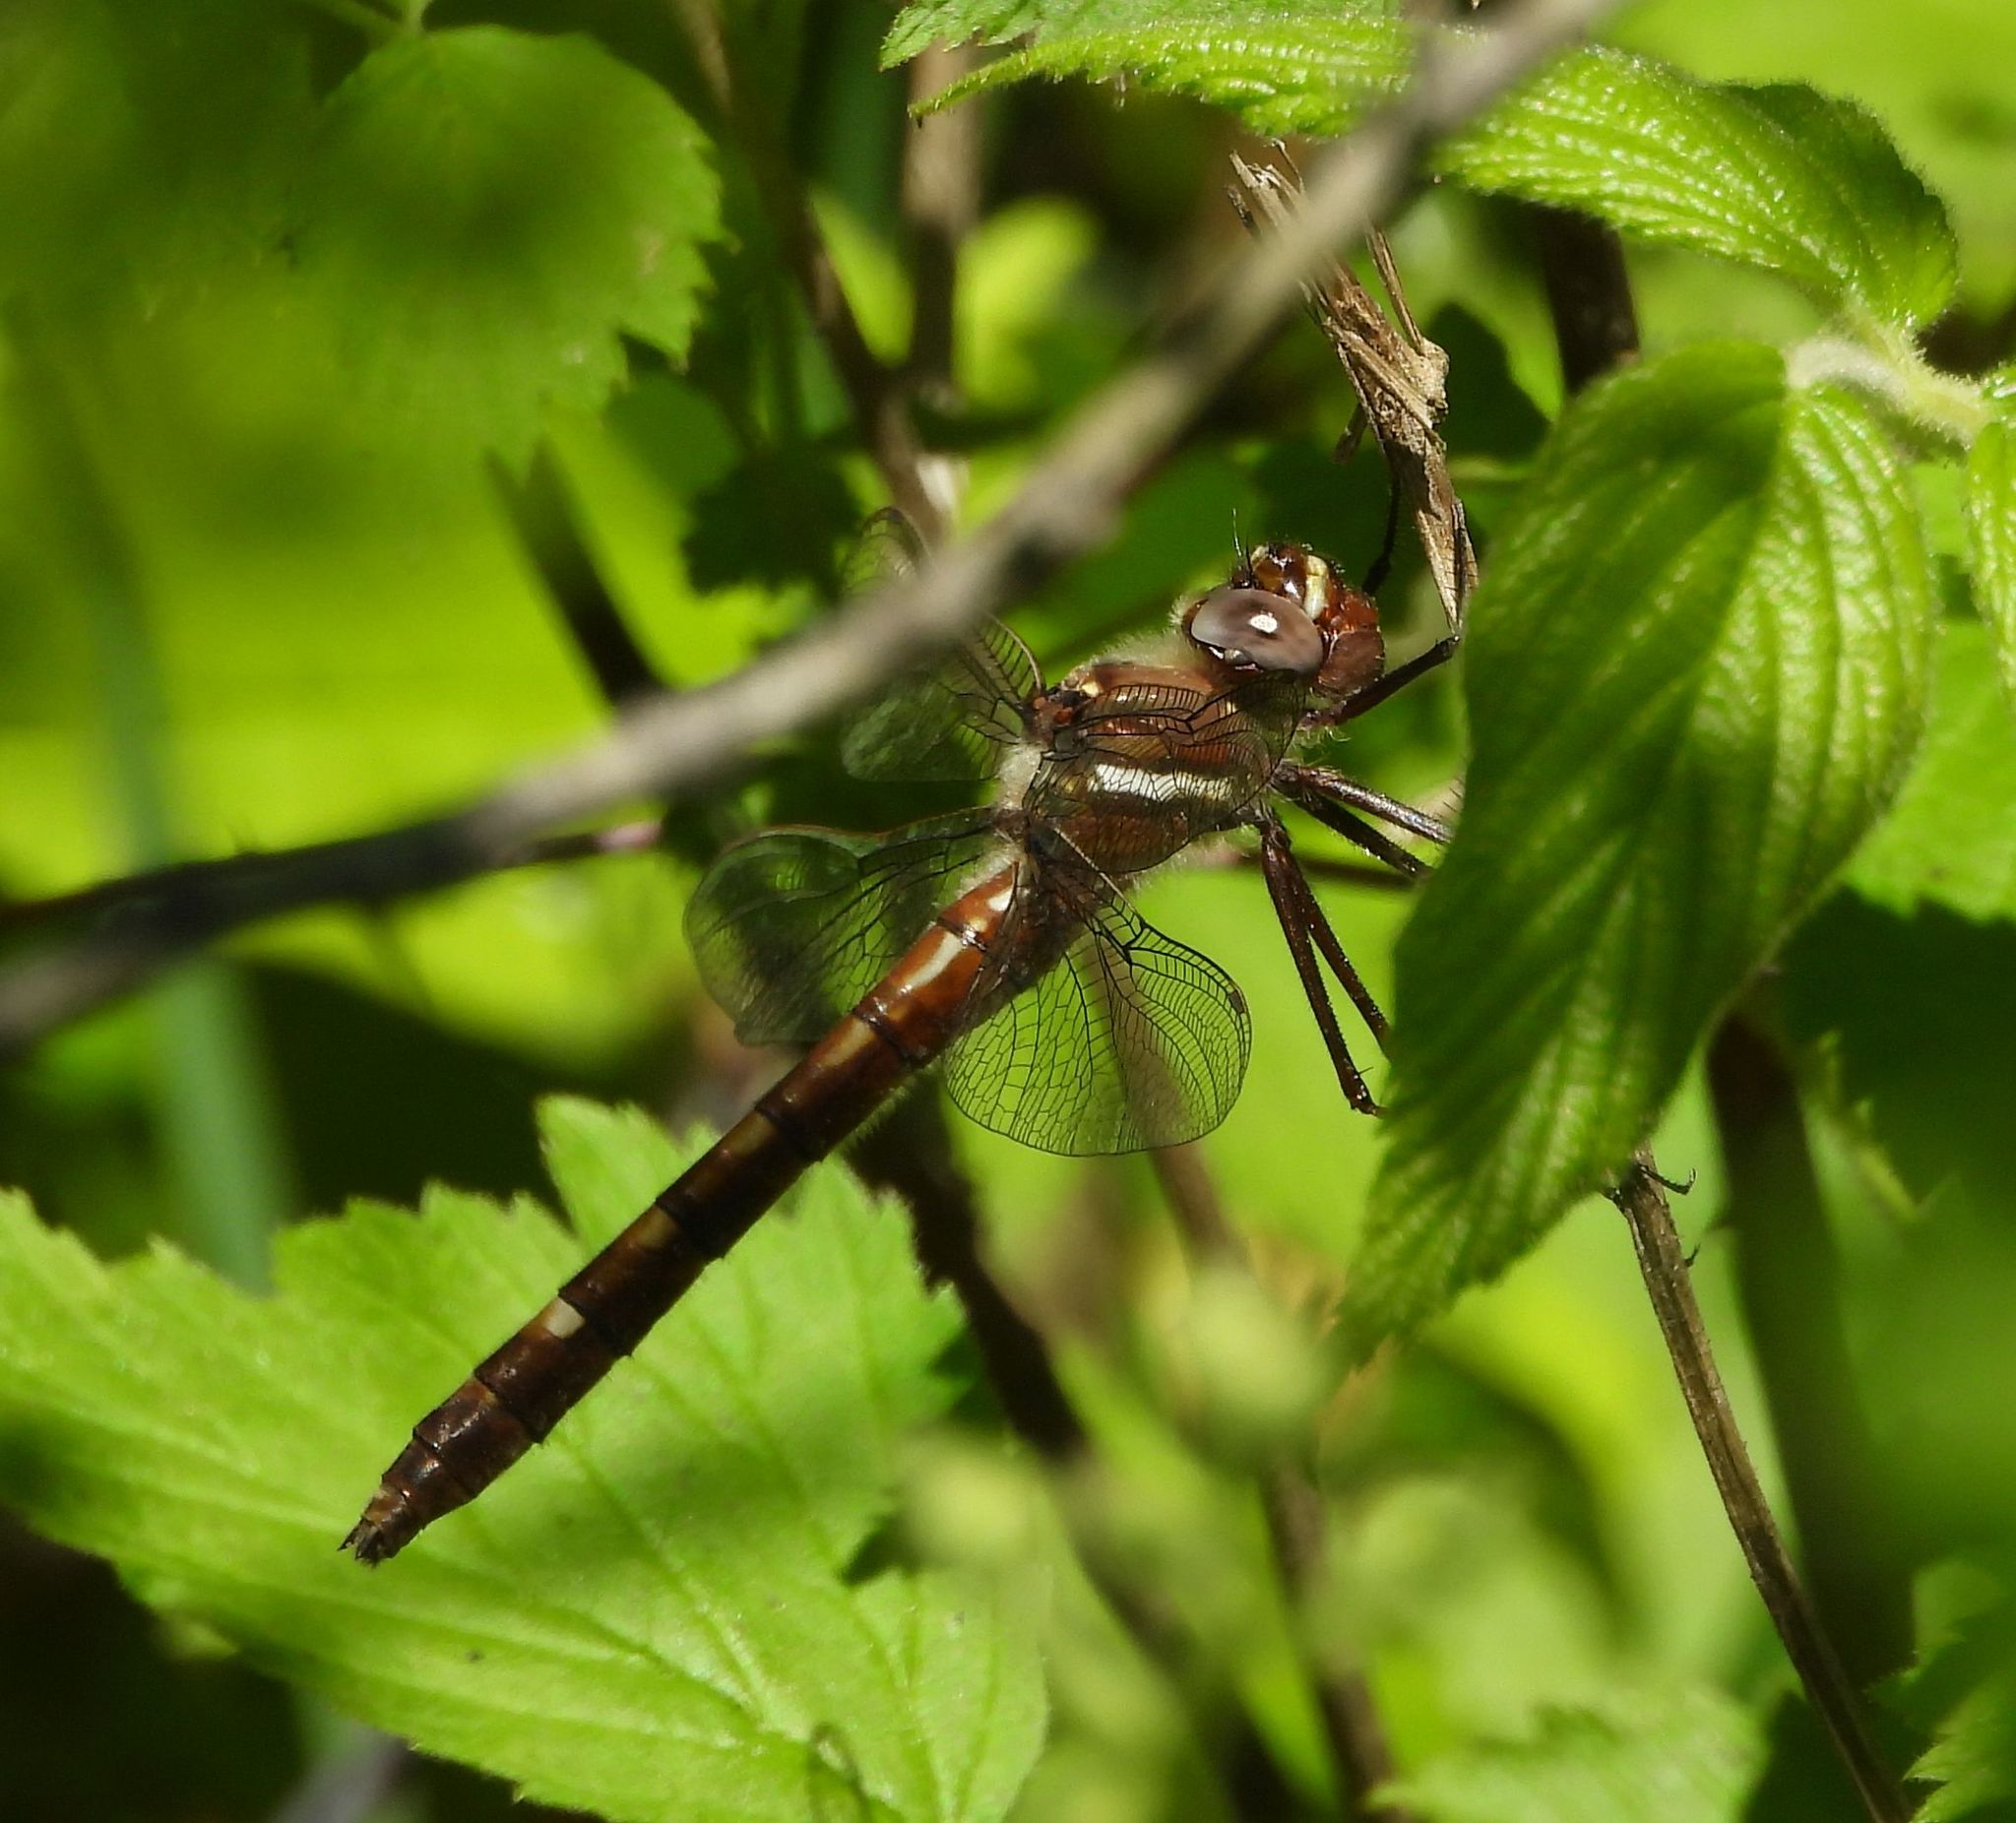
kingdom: Animalia
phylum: Arthropoda
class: Insecta
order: Odonata
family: Macromiidae
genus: Didymops
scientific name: Didymops transversa
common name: Stream cruiser
